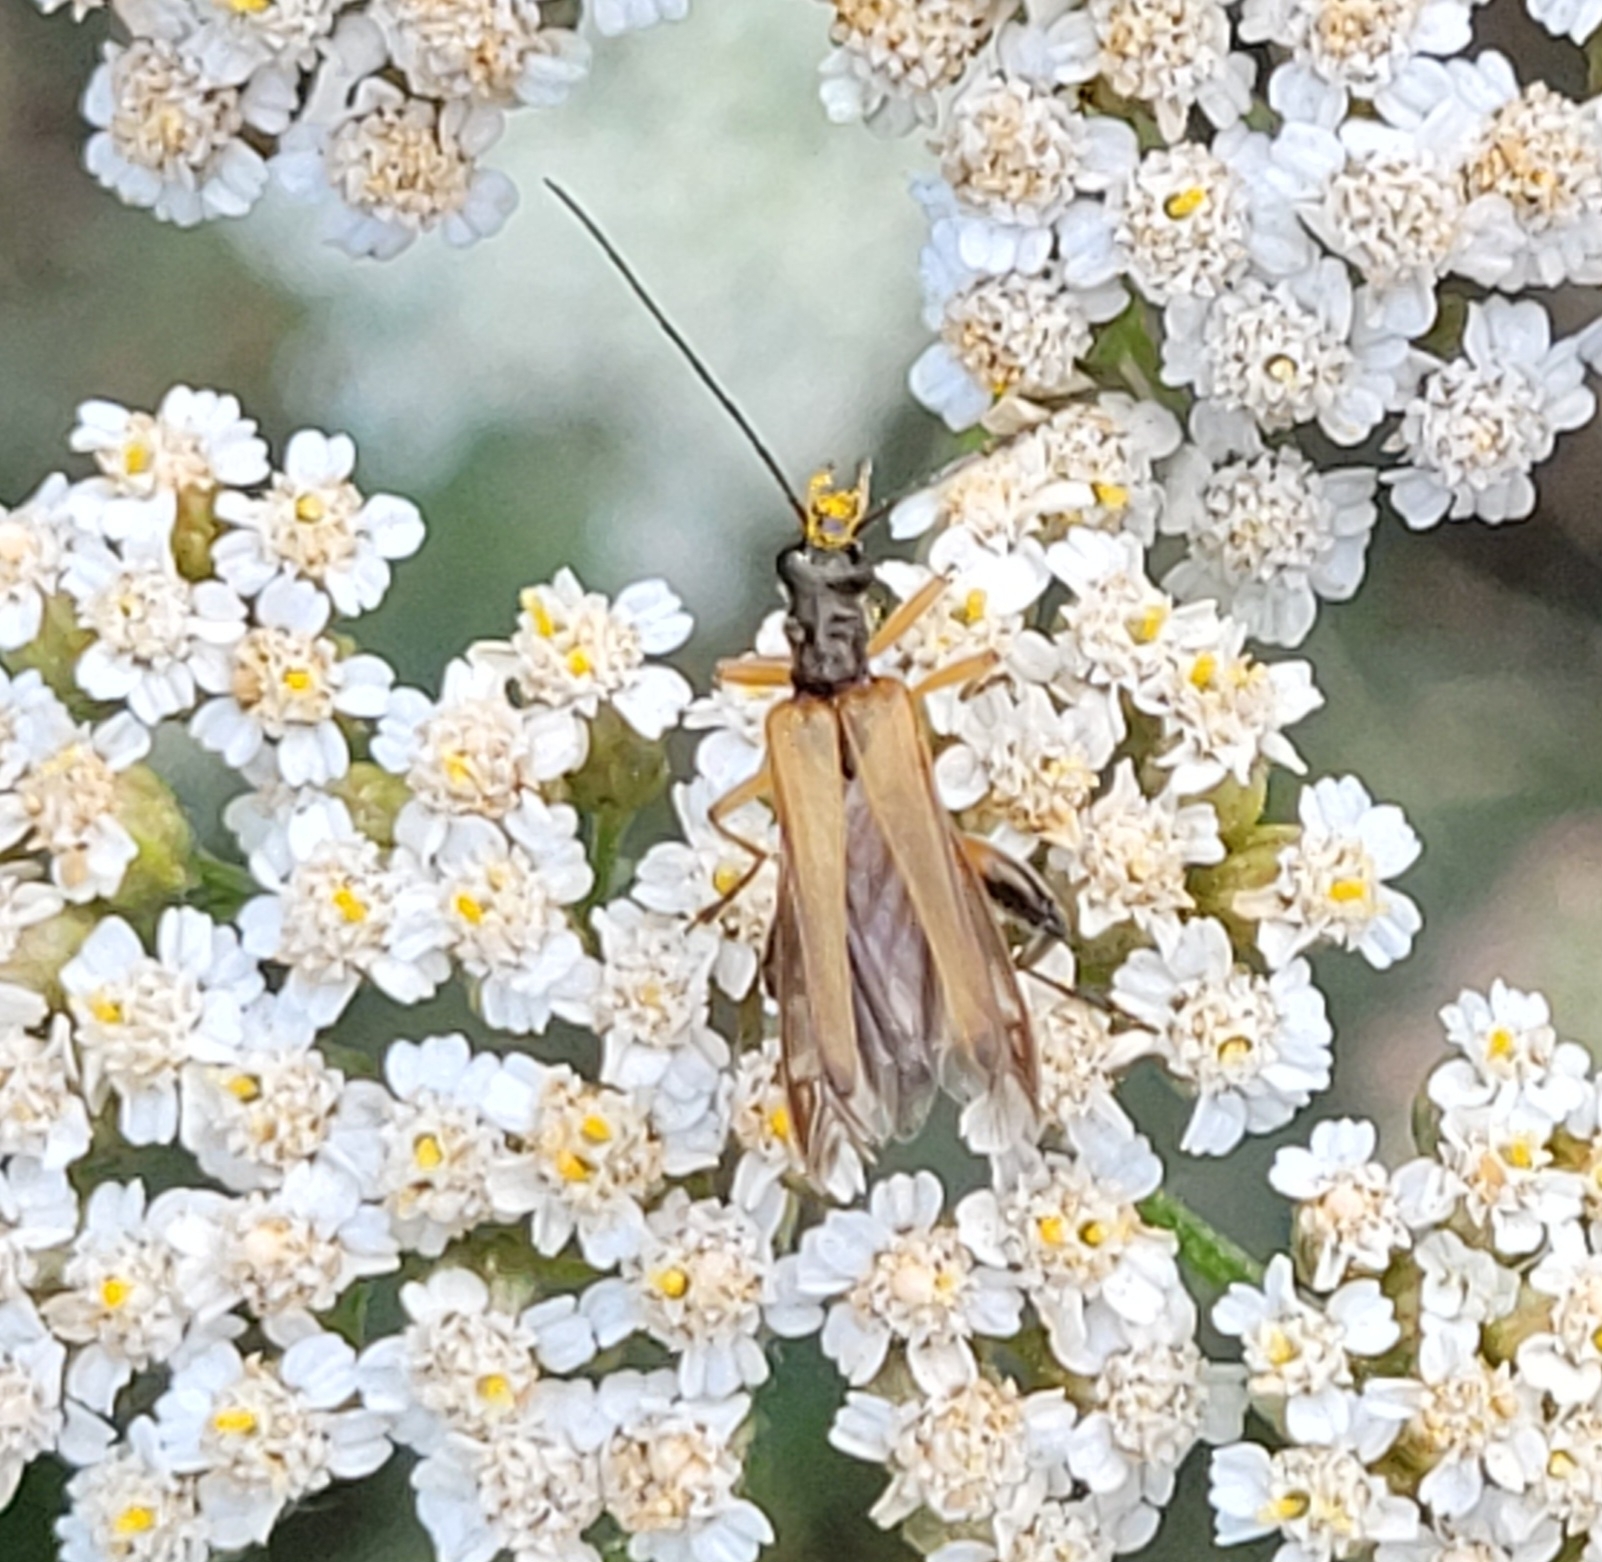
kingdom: Animalia
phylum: Arthropoda
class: Insecta
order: Coleoptera
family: Oedemeridae
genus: Oedemera
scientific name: Oedemera podagrariae
